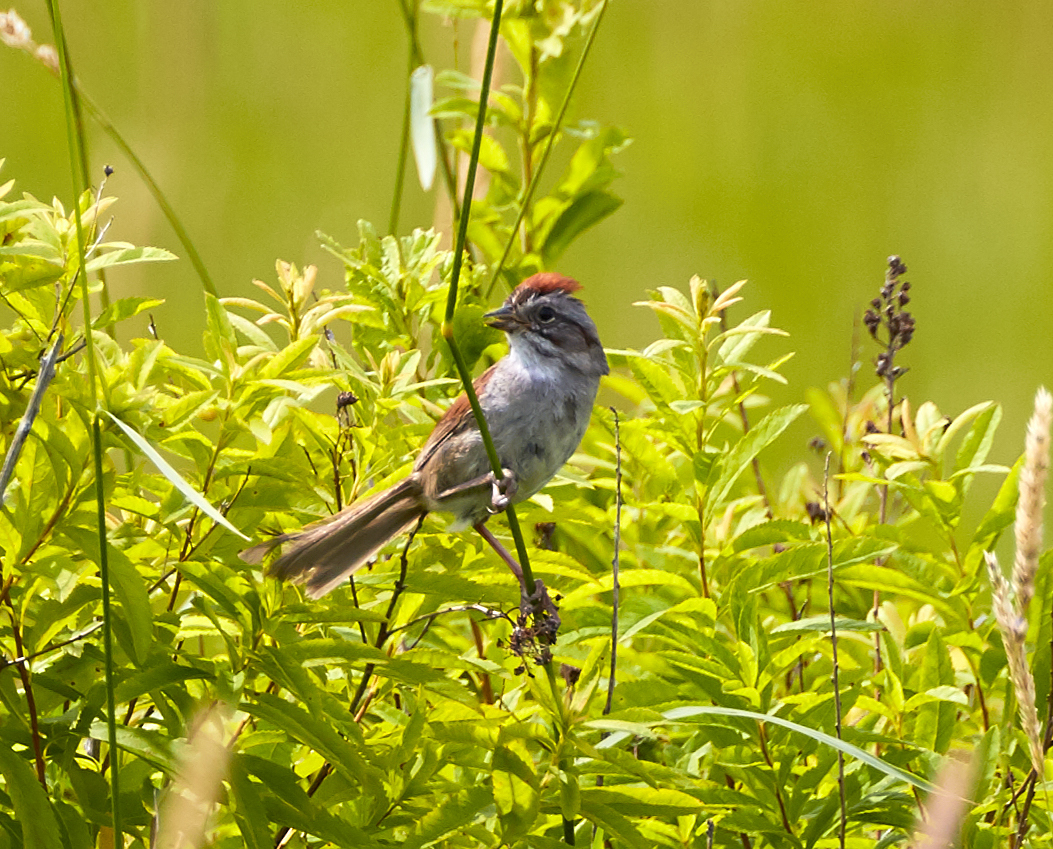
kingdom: Animalia
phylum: Chordata
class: Aves
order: Passeriformes
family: Passerellidae
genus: Melospiza
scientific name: Melospiza georgiana
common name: Swamp sparrow
